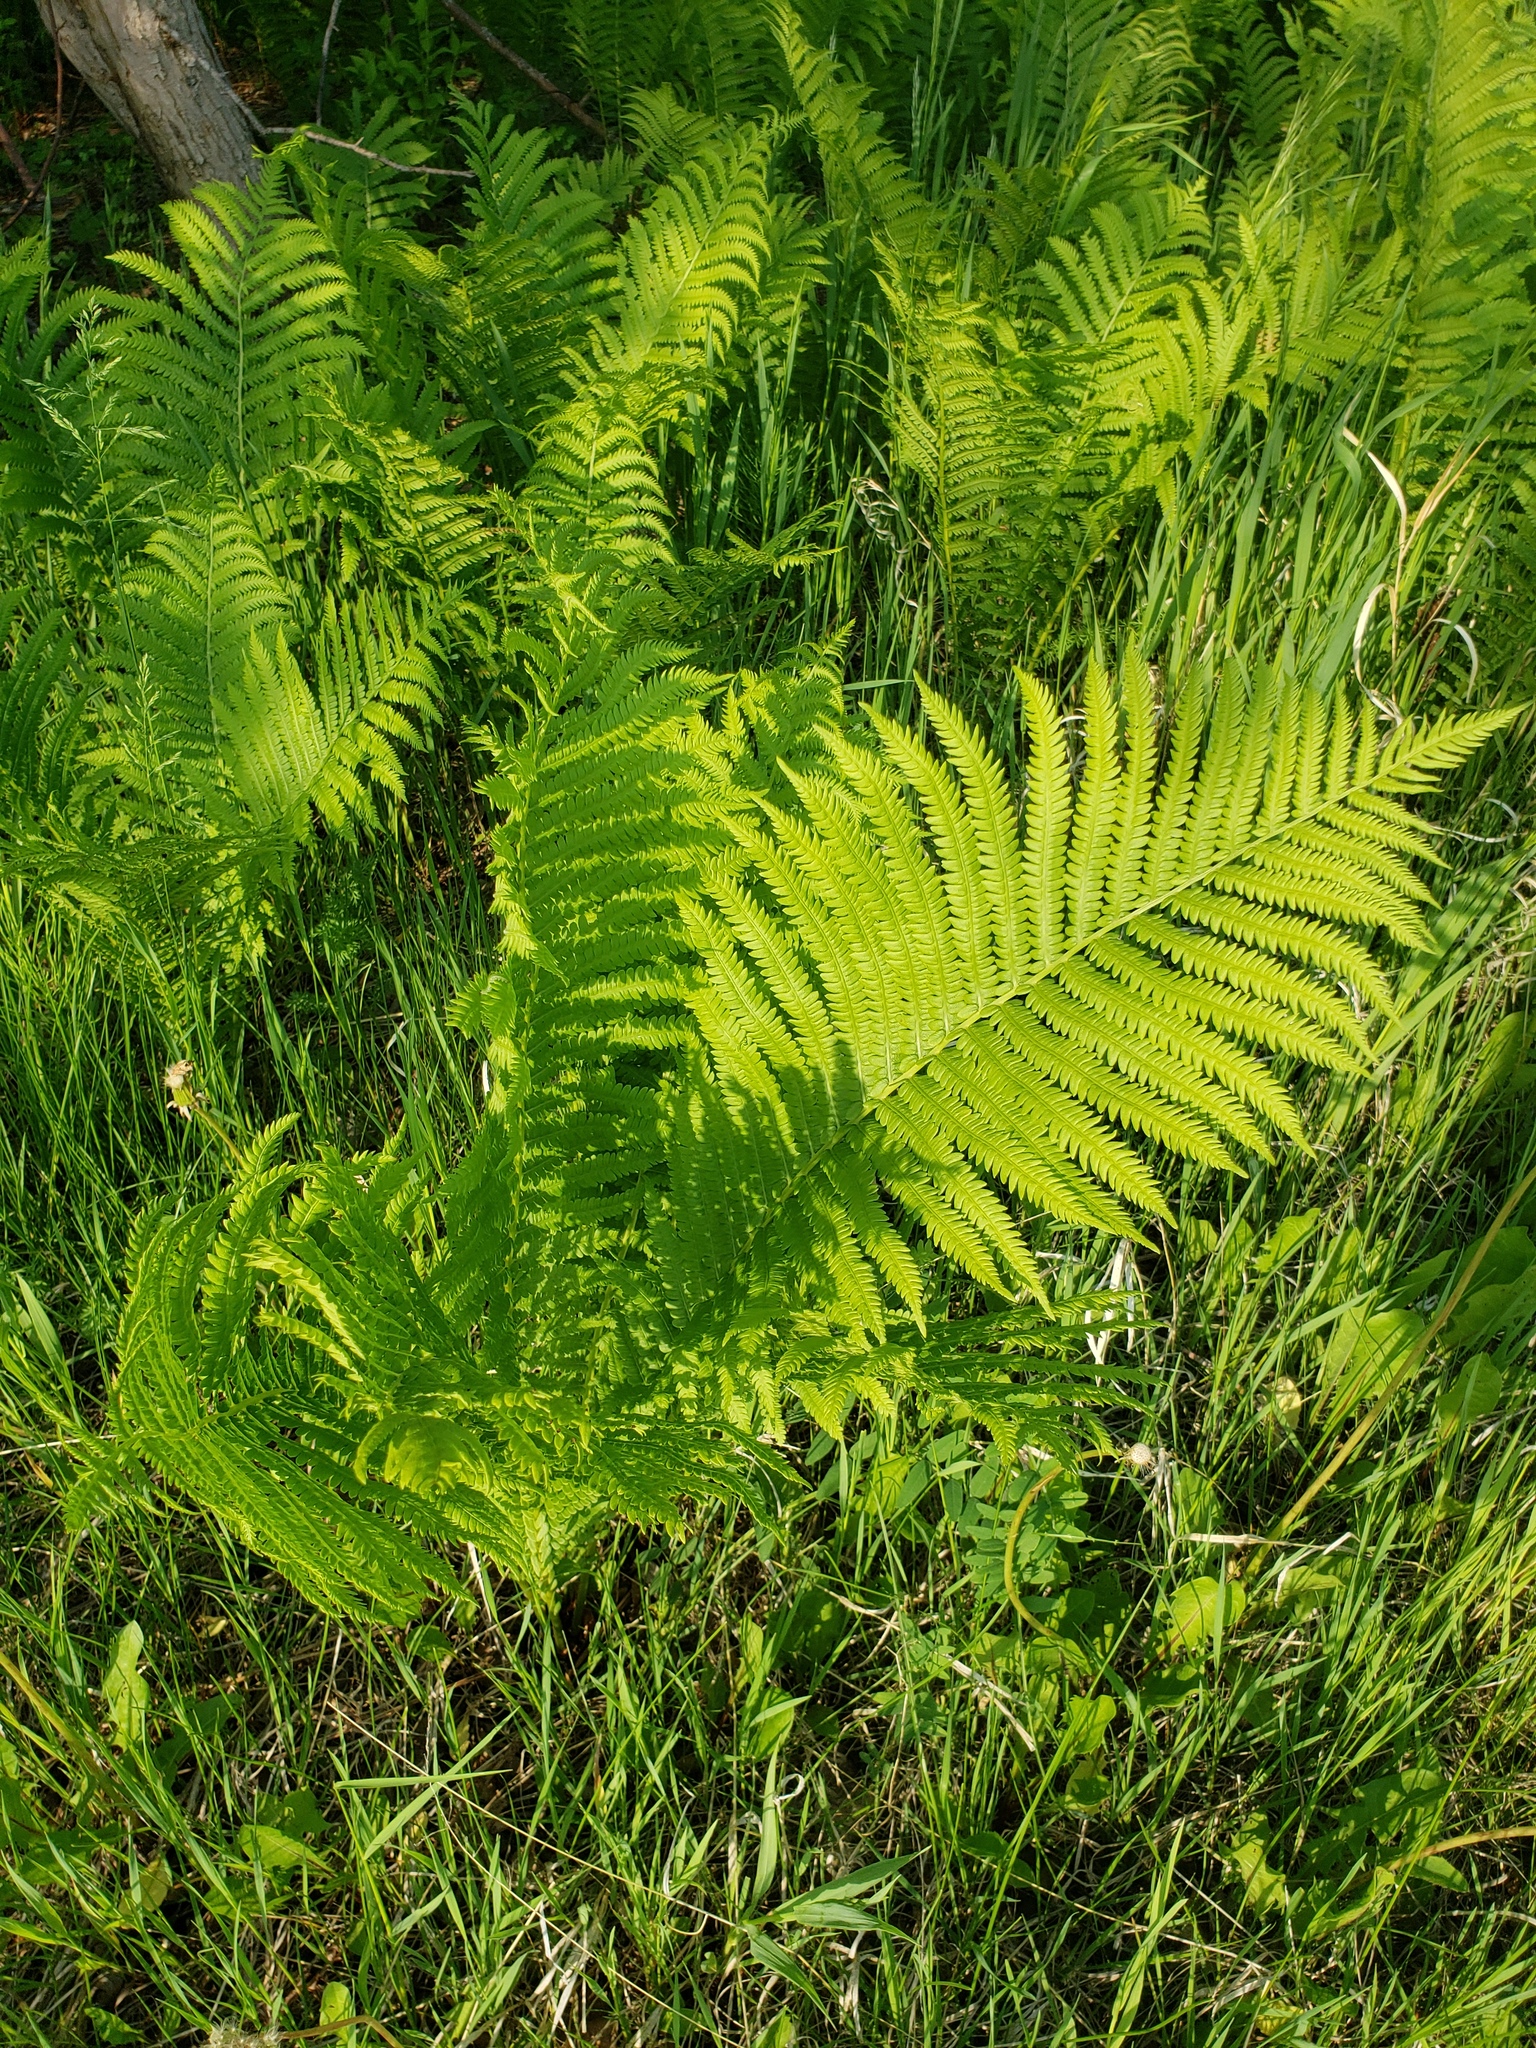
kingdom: Plantae
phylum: Tracheophyta
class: Polypodiopsida
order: Polypodiales
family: Onocleaceae
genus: Matteuccia
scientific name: Matteuccia struthiopteris
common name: Ostrich fern
